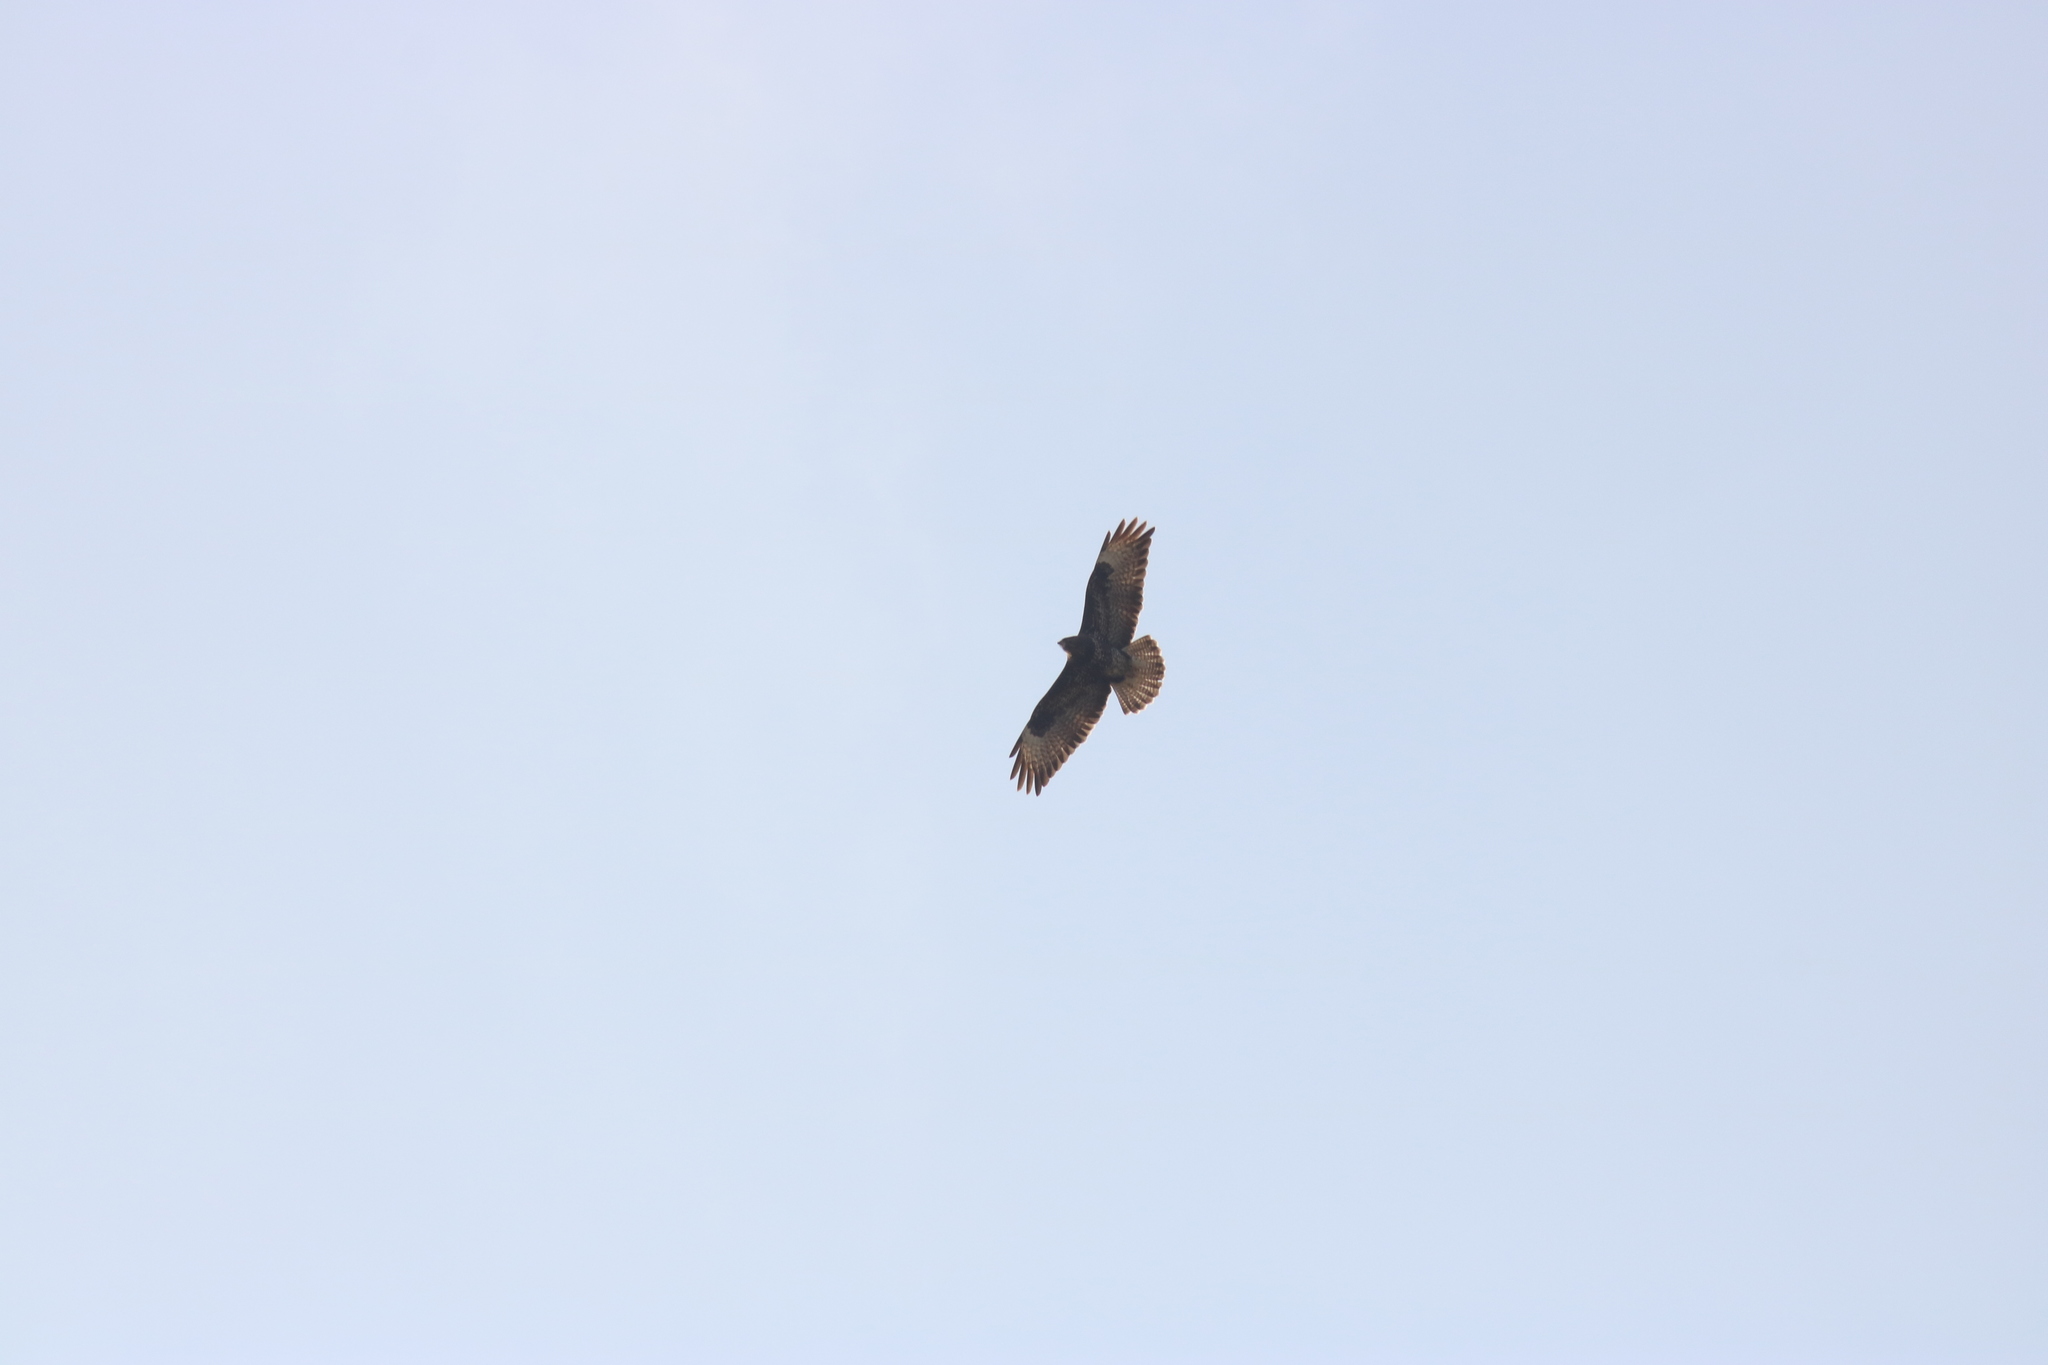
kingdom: Animalia
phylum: Chordata
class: Aves
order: Accipitriformes
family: Accipitridae
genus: Buteo
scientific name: Buteo buteo
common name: Common buzzard
